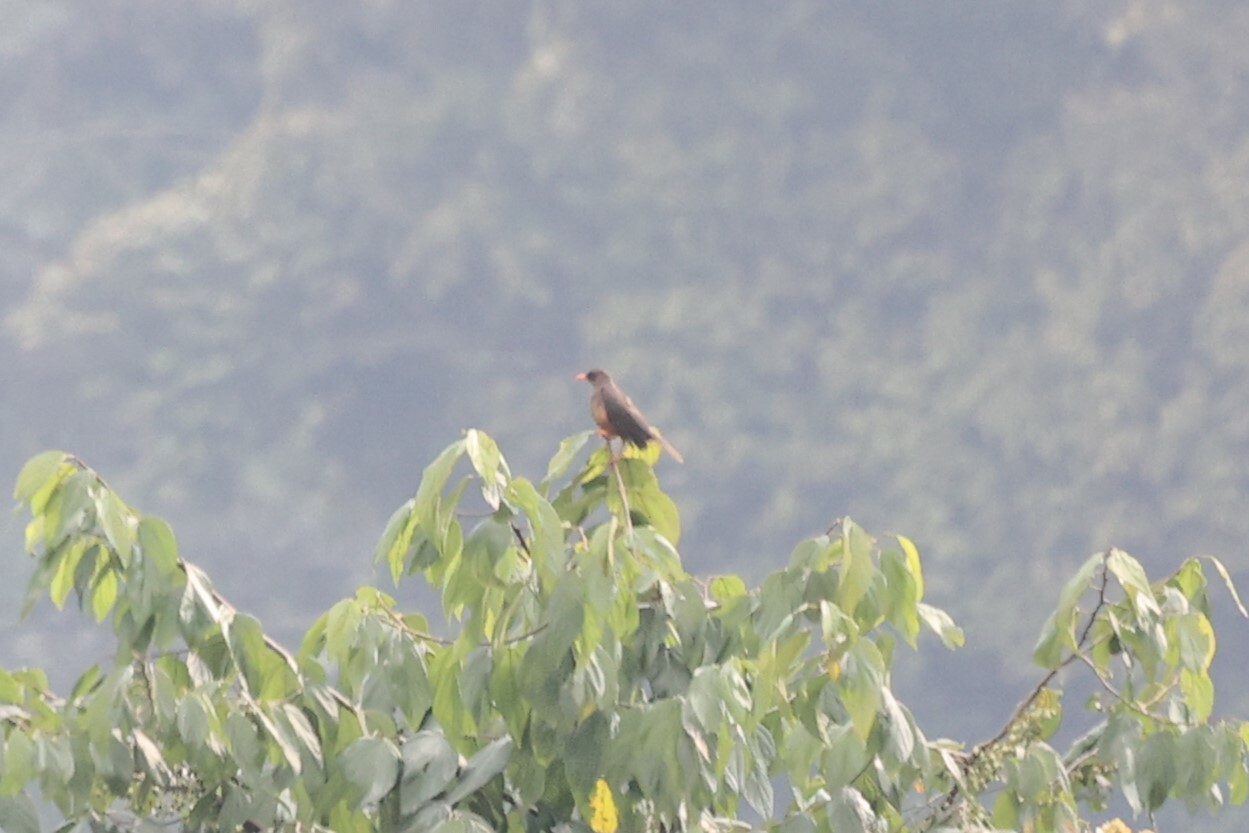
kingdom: Animalia
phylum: Chordata
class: Aves
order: Passeriformes
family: Turdidae
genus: Turdus
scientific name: Turdus abyssinicus
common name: Abyssinian thrush
